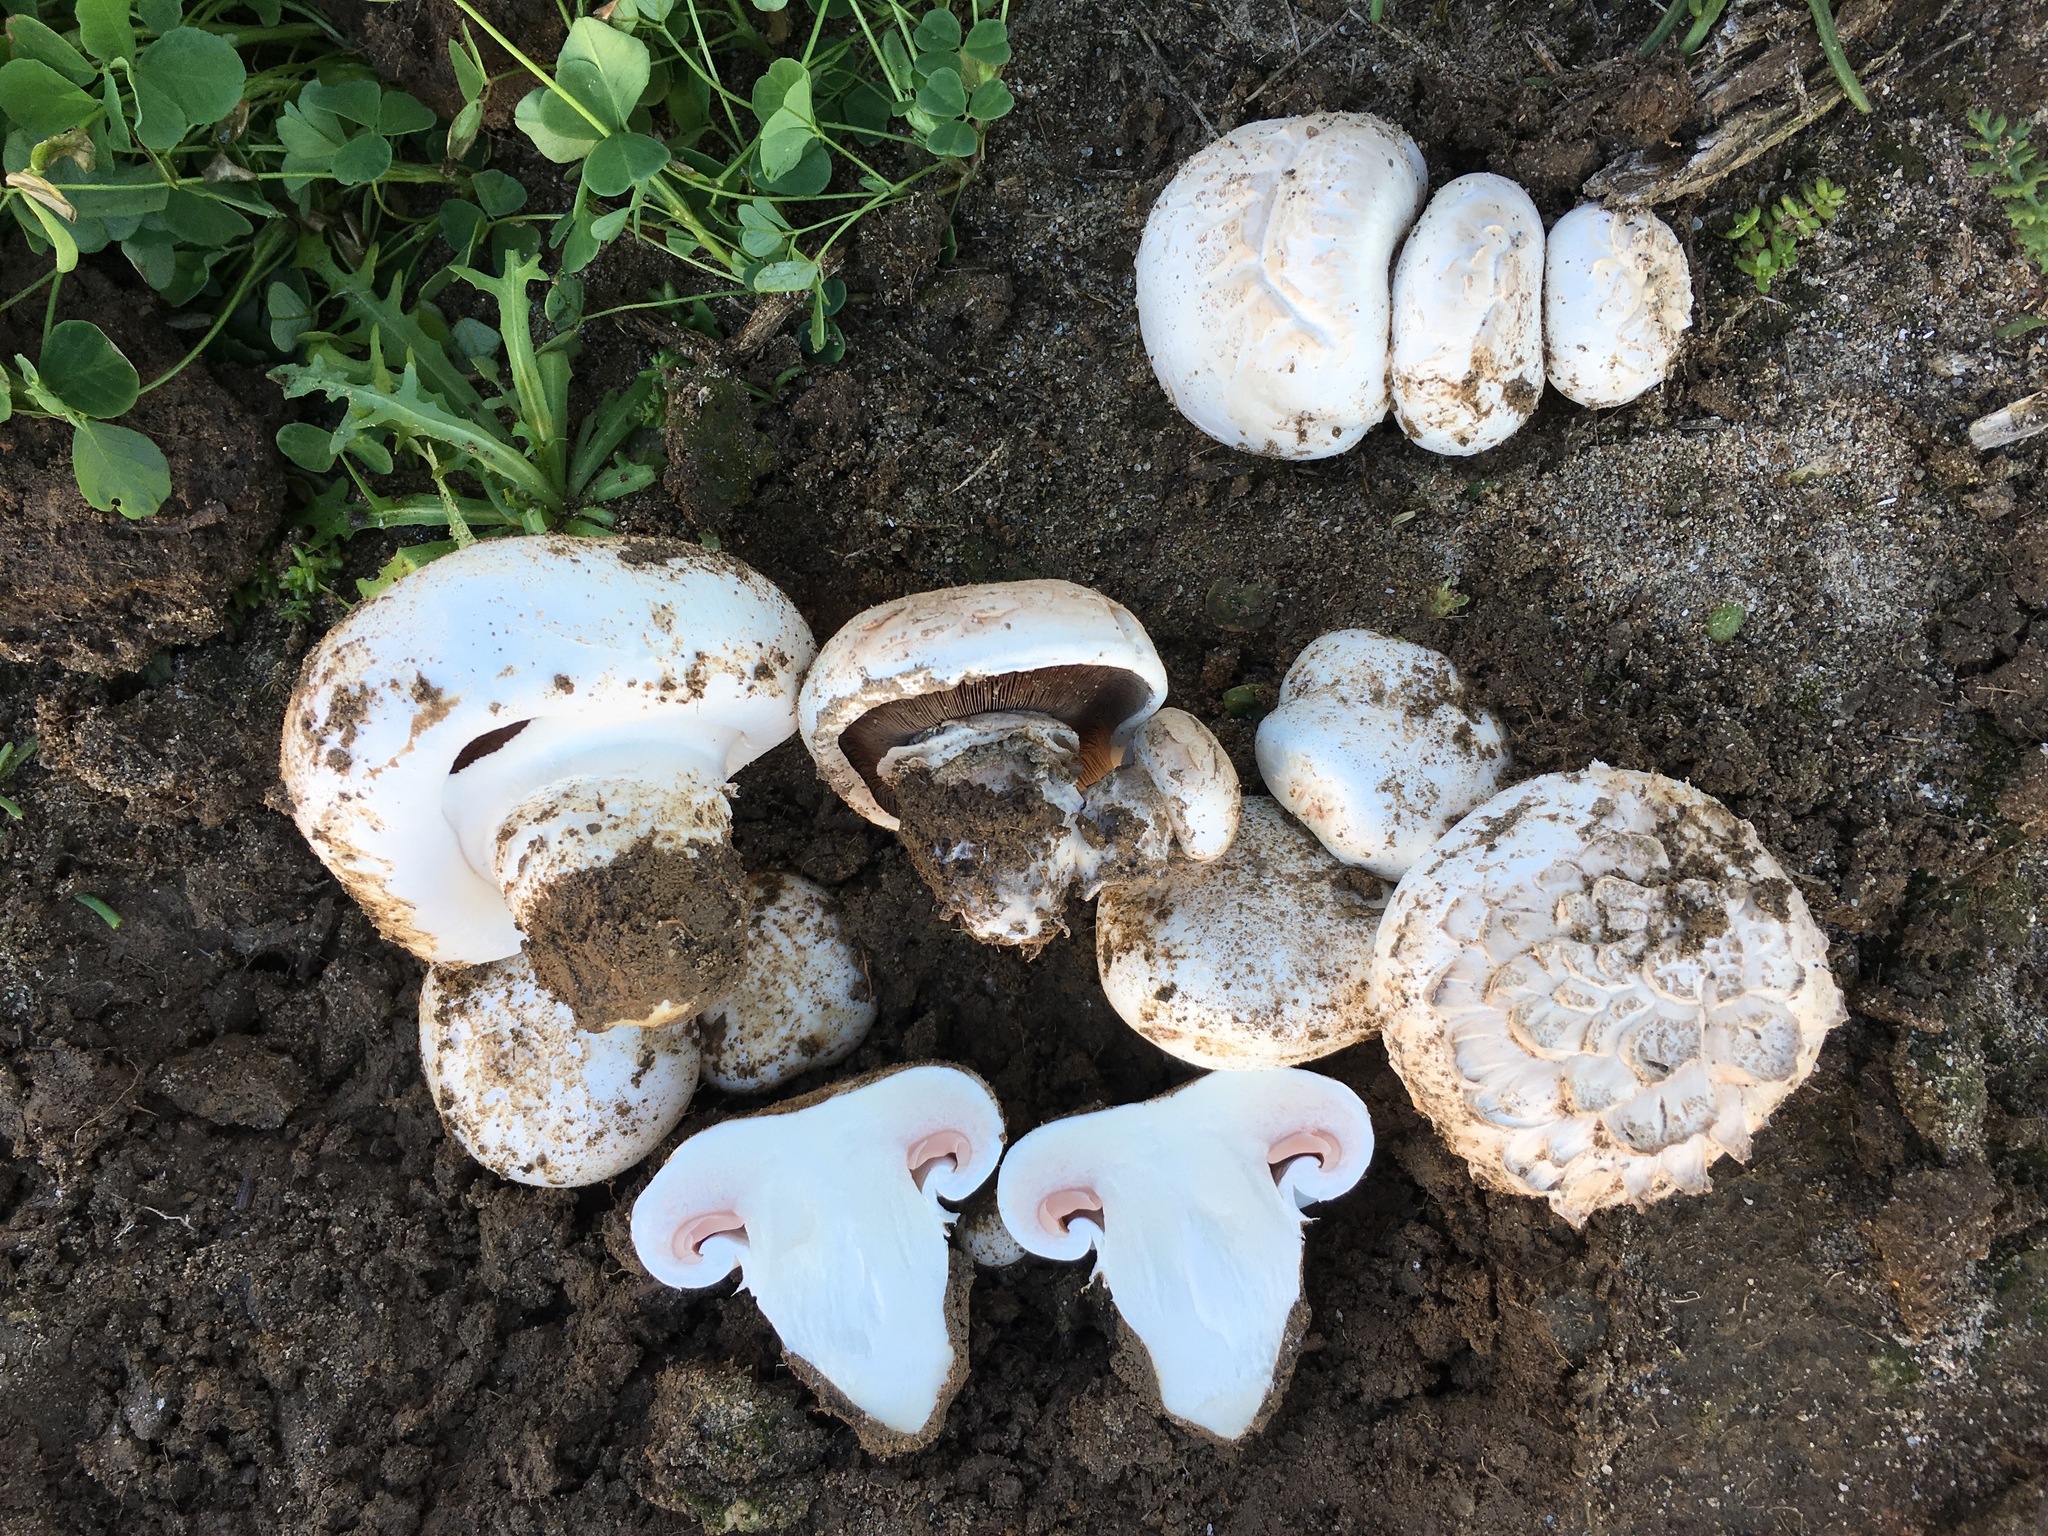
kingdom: Fungi
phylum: Basidiomycota
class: Agaricomycetes
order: Agaricales
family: Agaricaceae
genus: Agaricus
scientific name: Agaricus bitorquis
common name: Pavement mushroom
